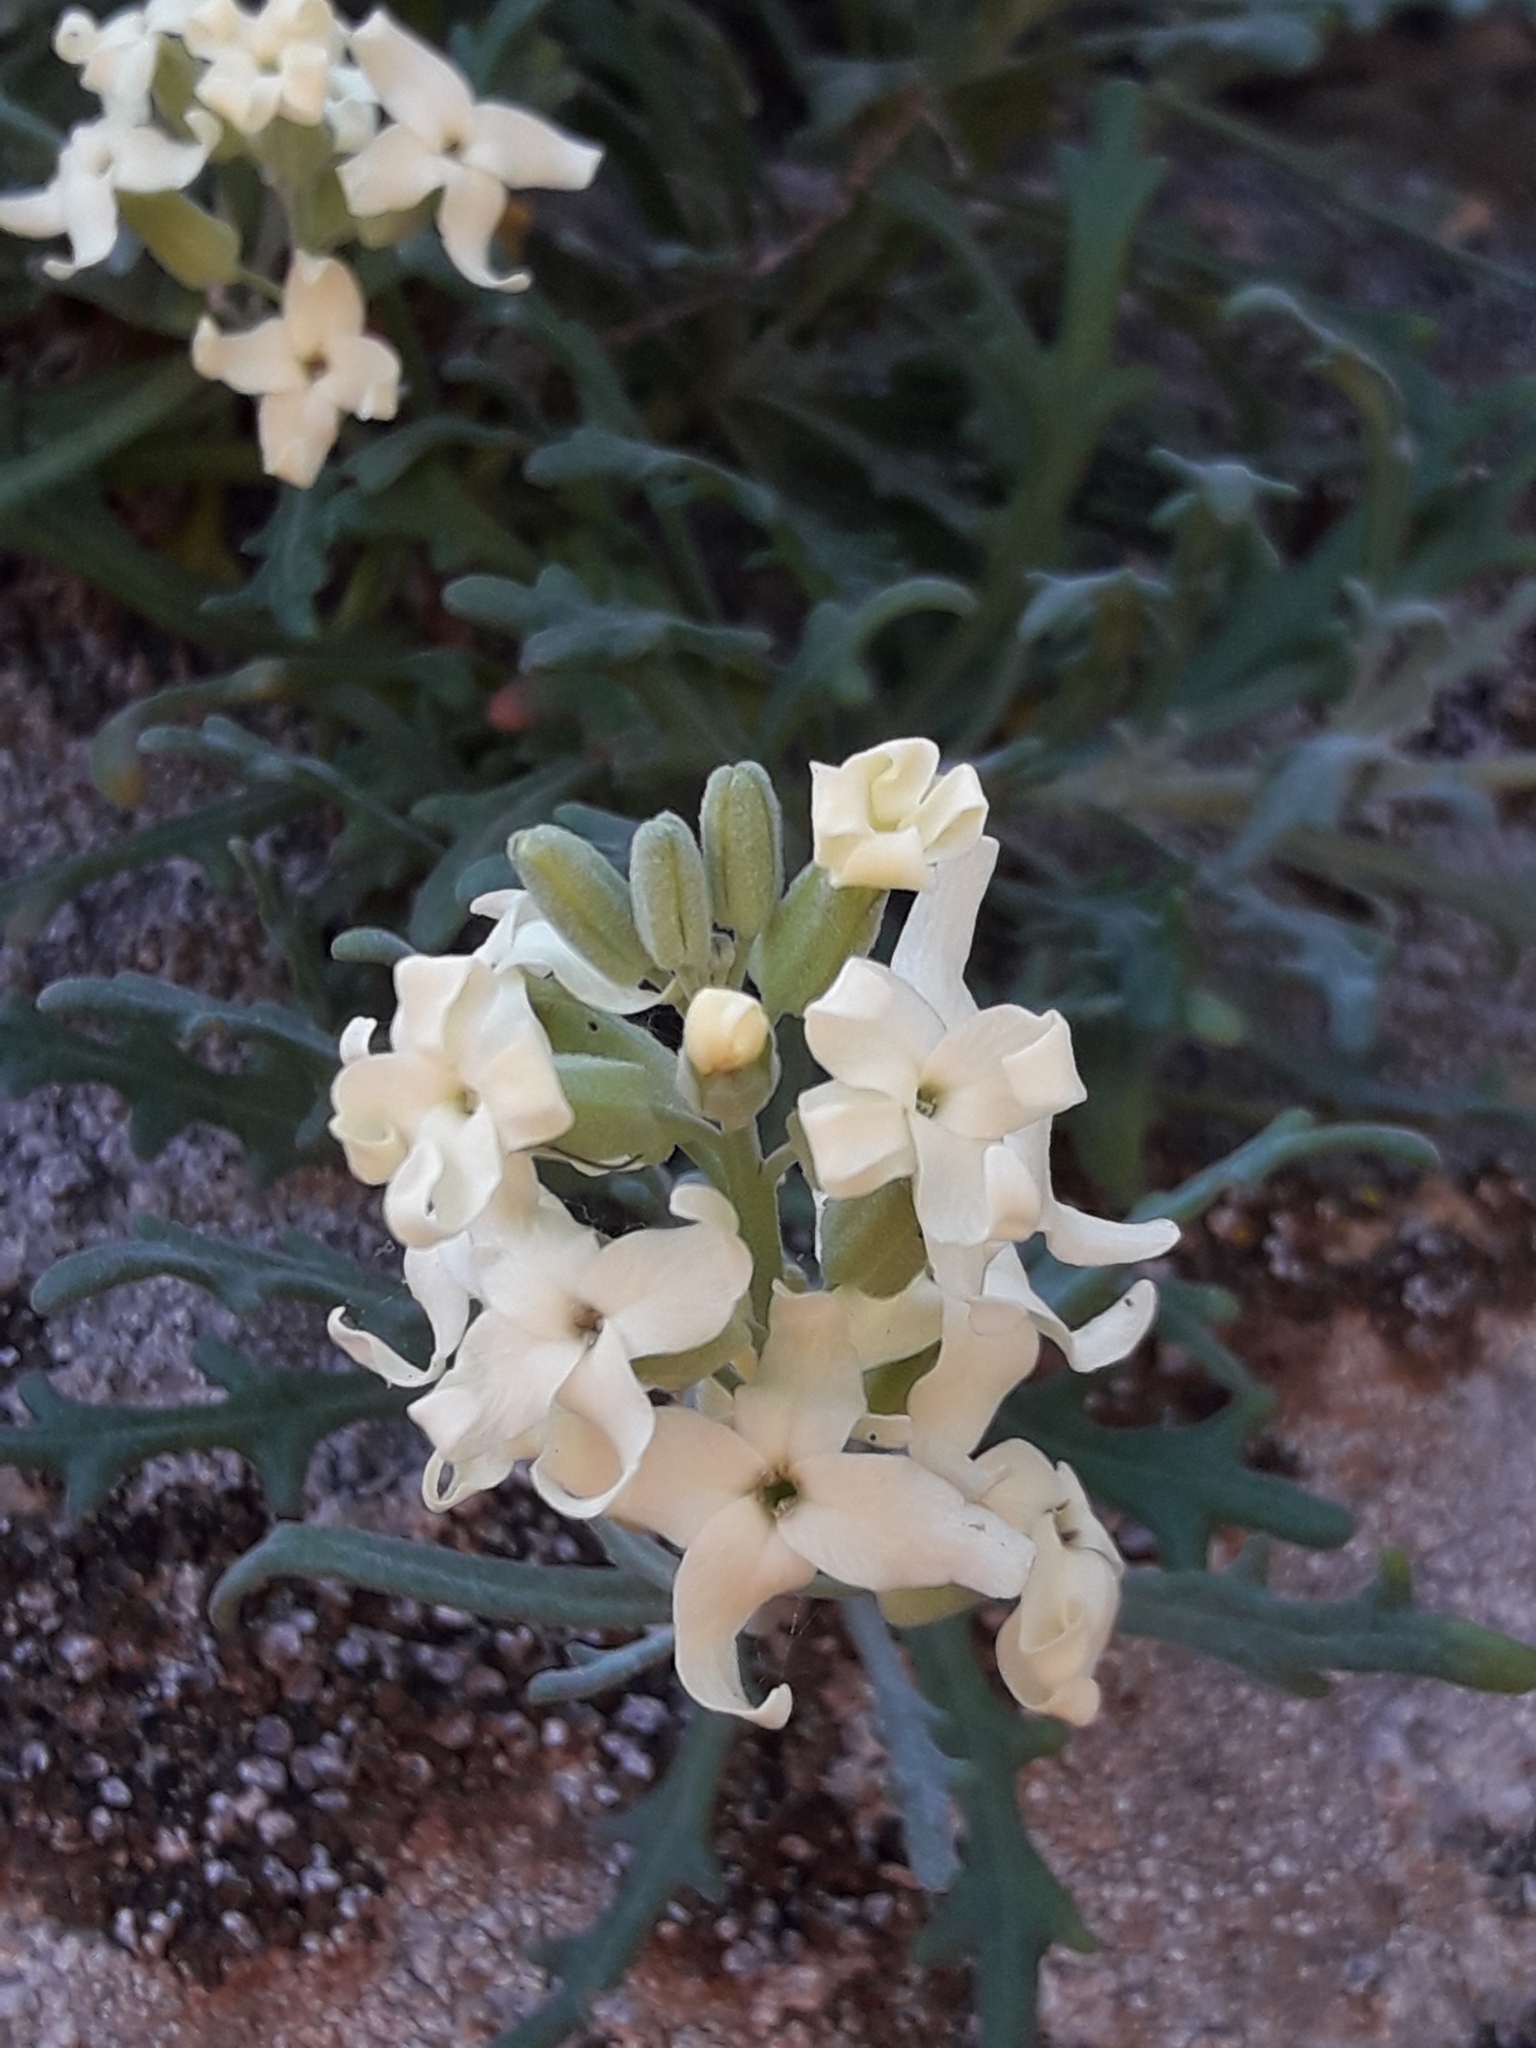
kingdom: Plantae
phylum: Tracheophyta
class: Magnoliopsida
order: Brassicales
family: Brassicaceae
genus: Mathewsia
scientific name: Mathewsia foliosa
